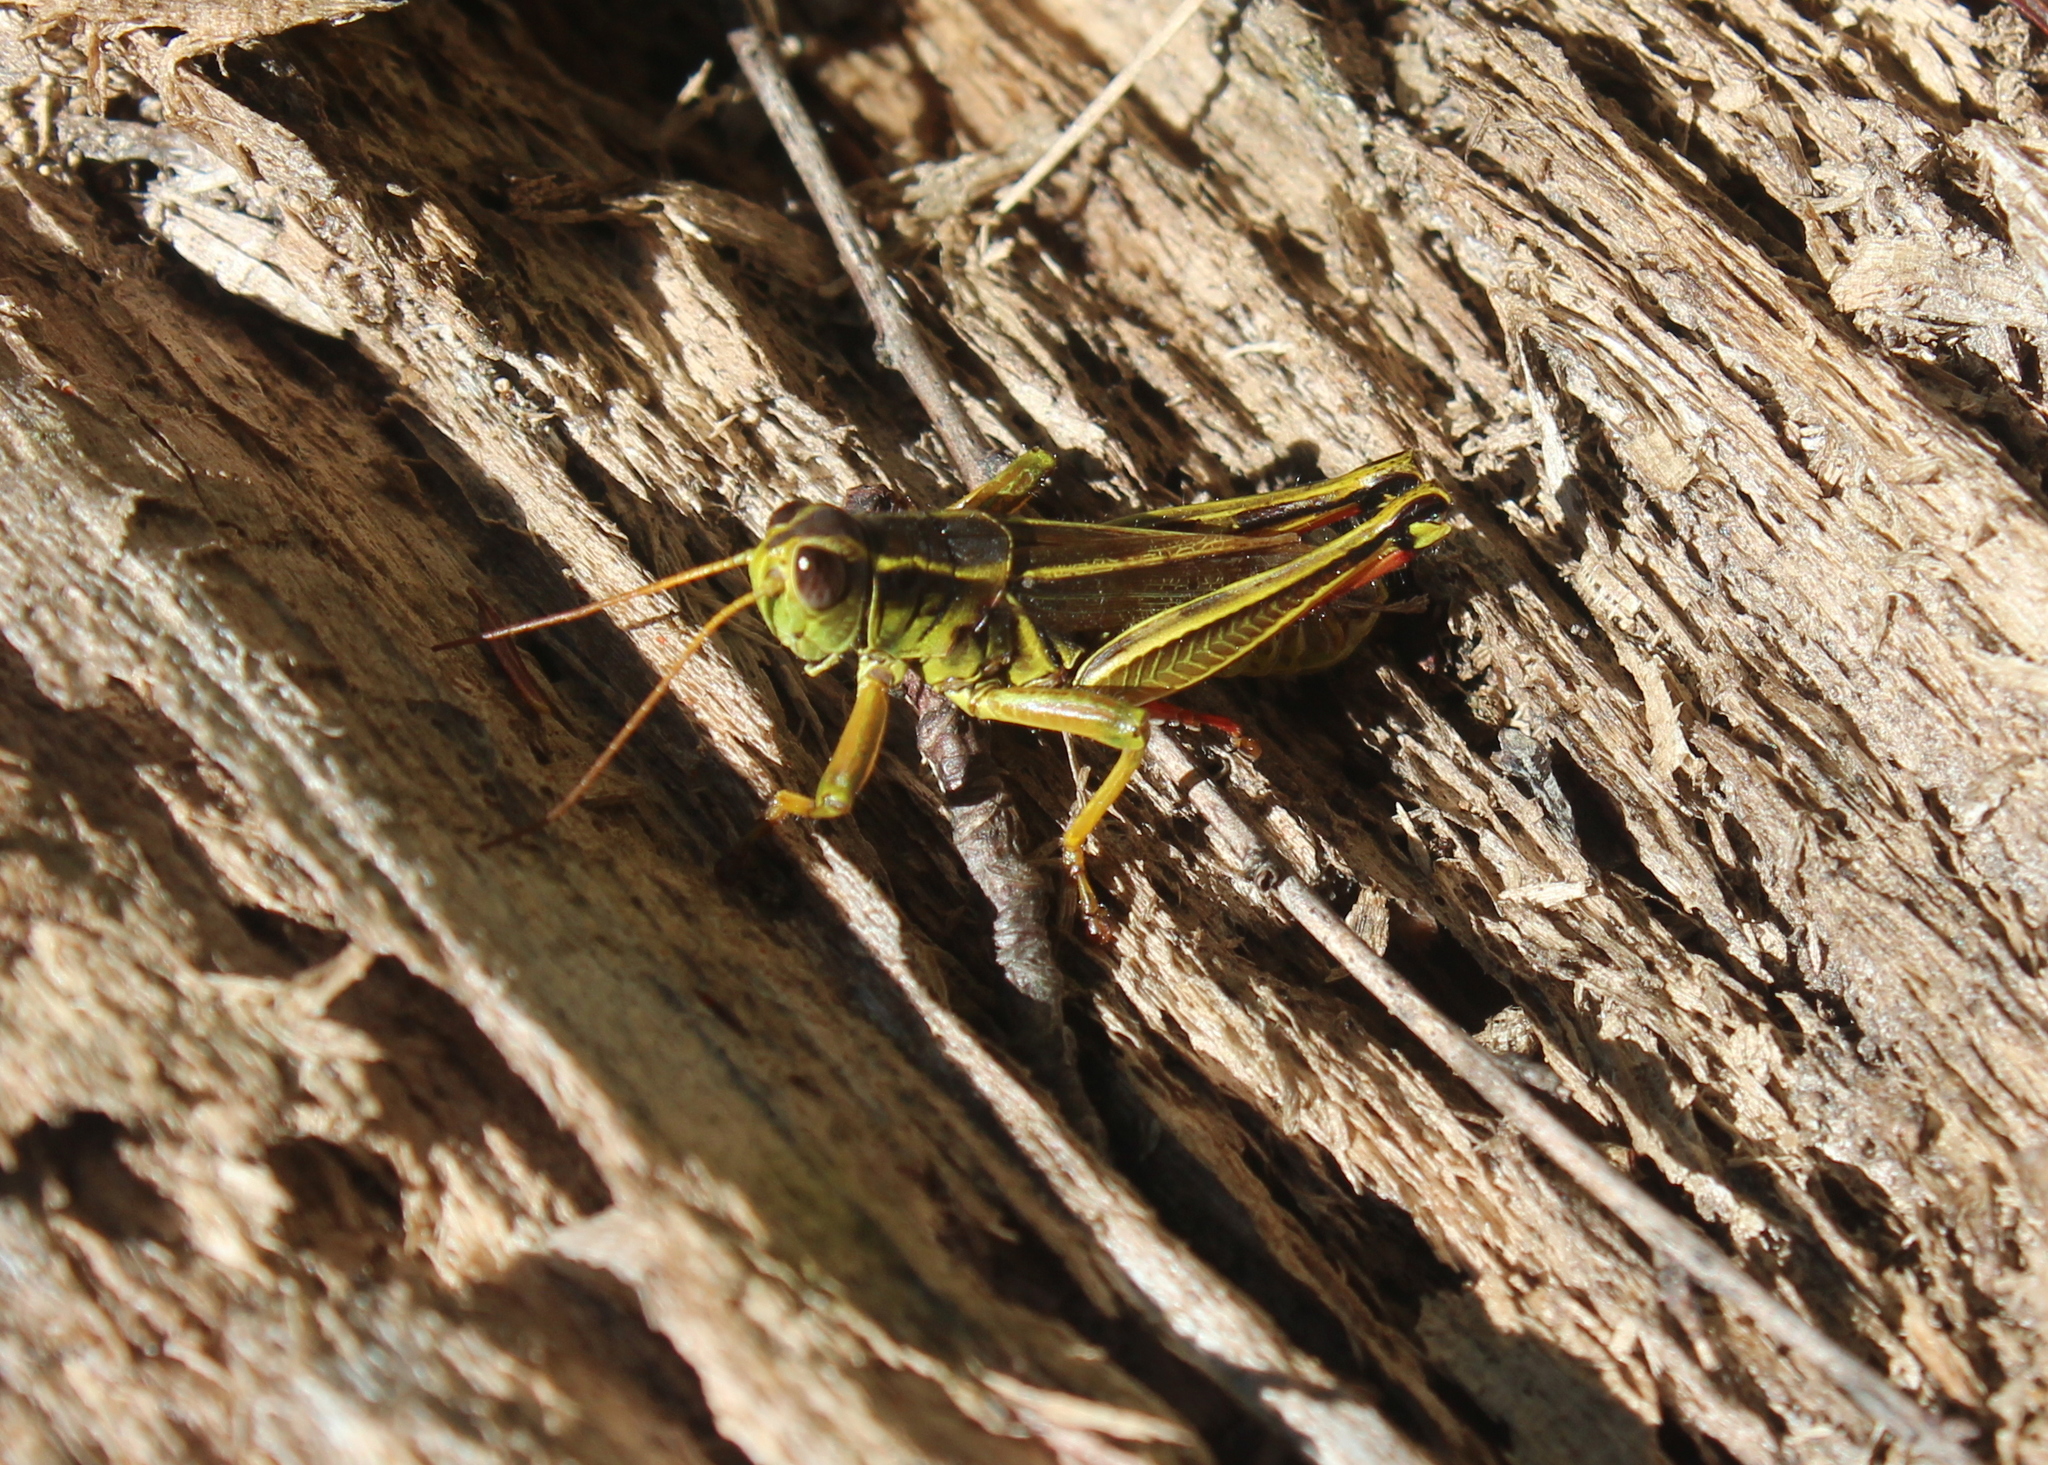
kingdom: Animalia
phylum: Arthropoda
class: Insecta
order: Orthoptera
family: Acrididae
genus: Melanoplus
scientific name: Melanoplus bivittatus
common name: Two-striped grasshopper
